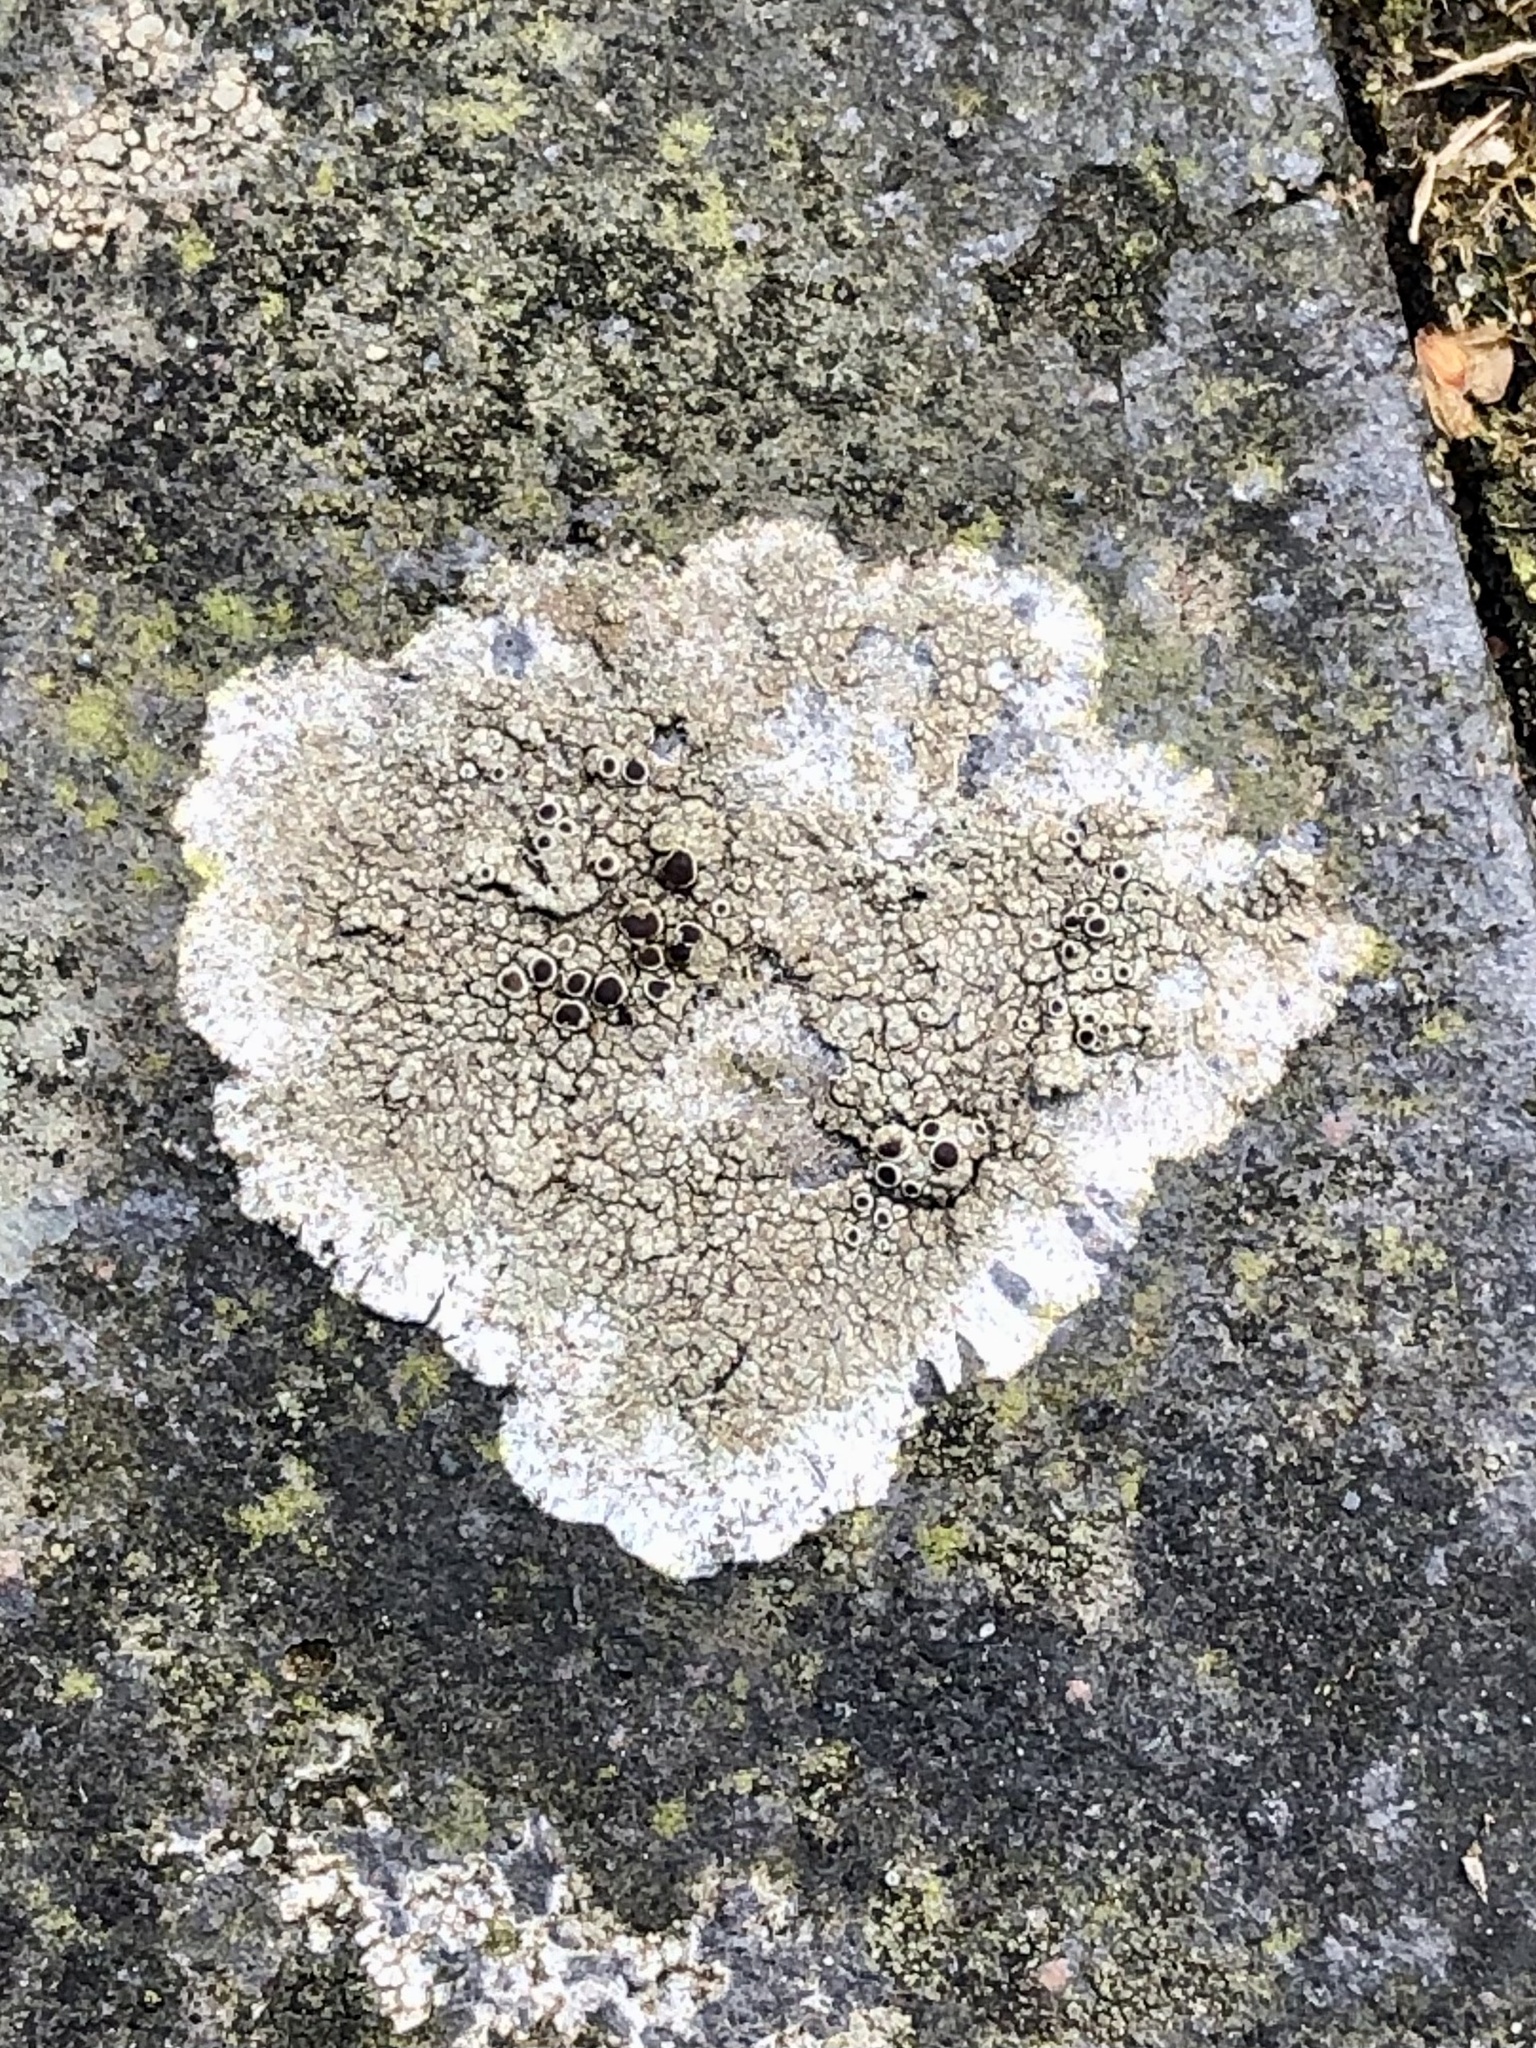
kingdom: Fungi
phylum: Ascomycota
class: Lecanoromycetes
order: Lecanorales
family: Lecanoraceae
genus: Lecanora
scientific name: Lecanora campestris
